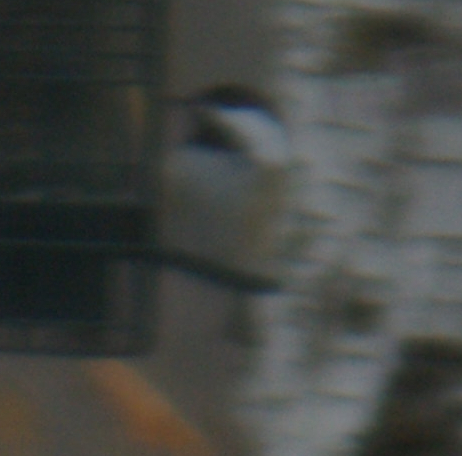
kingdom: Animalia
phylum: Chordata
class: Aves
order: Passeriformes
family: Paridae
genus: Poecile
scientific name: Poecile atricapillus
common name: Black-capped chickadee
